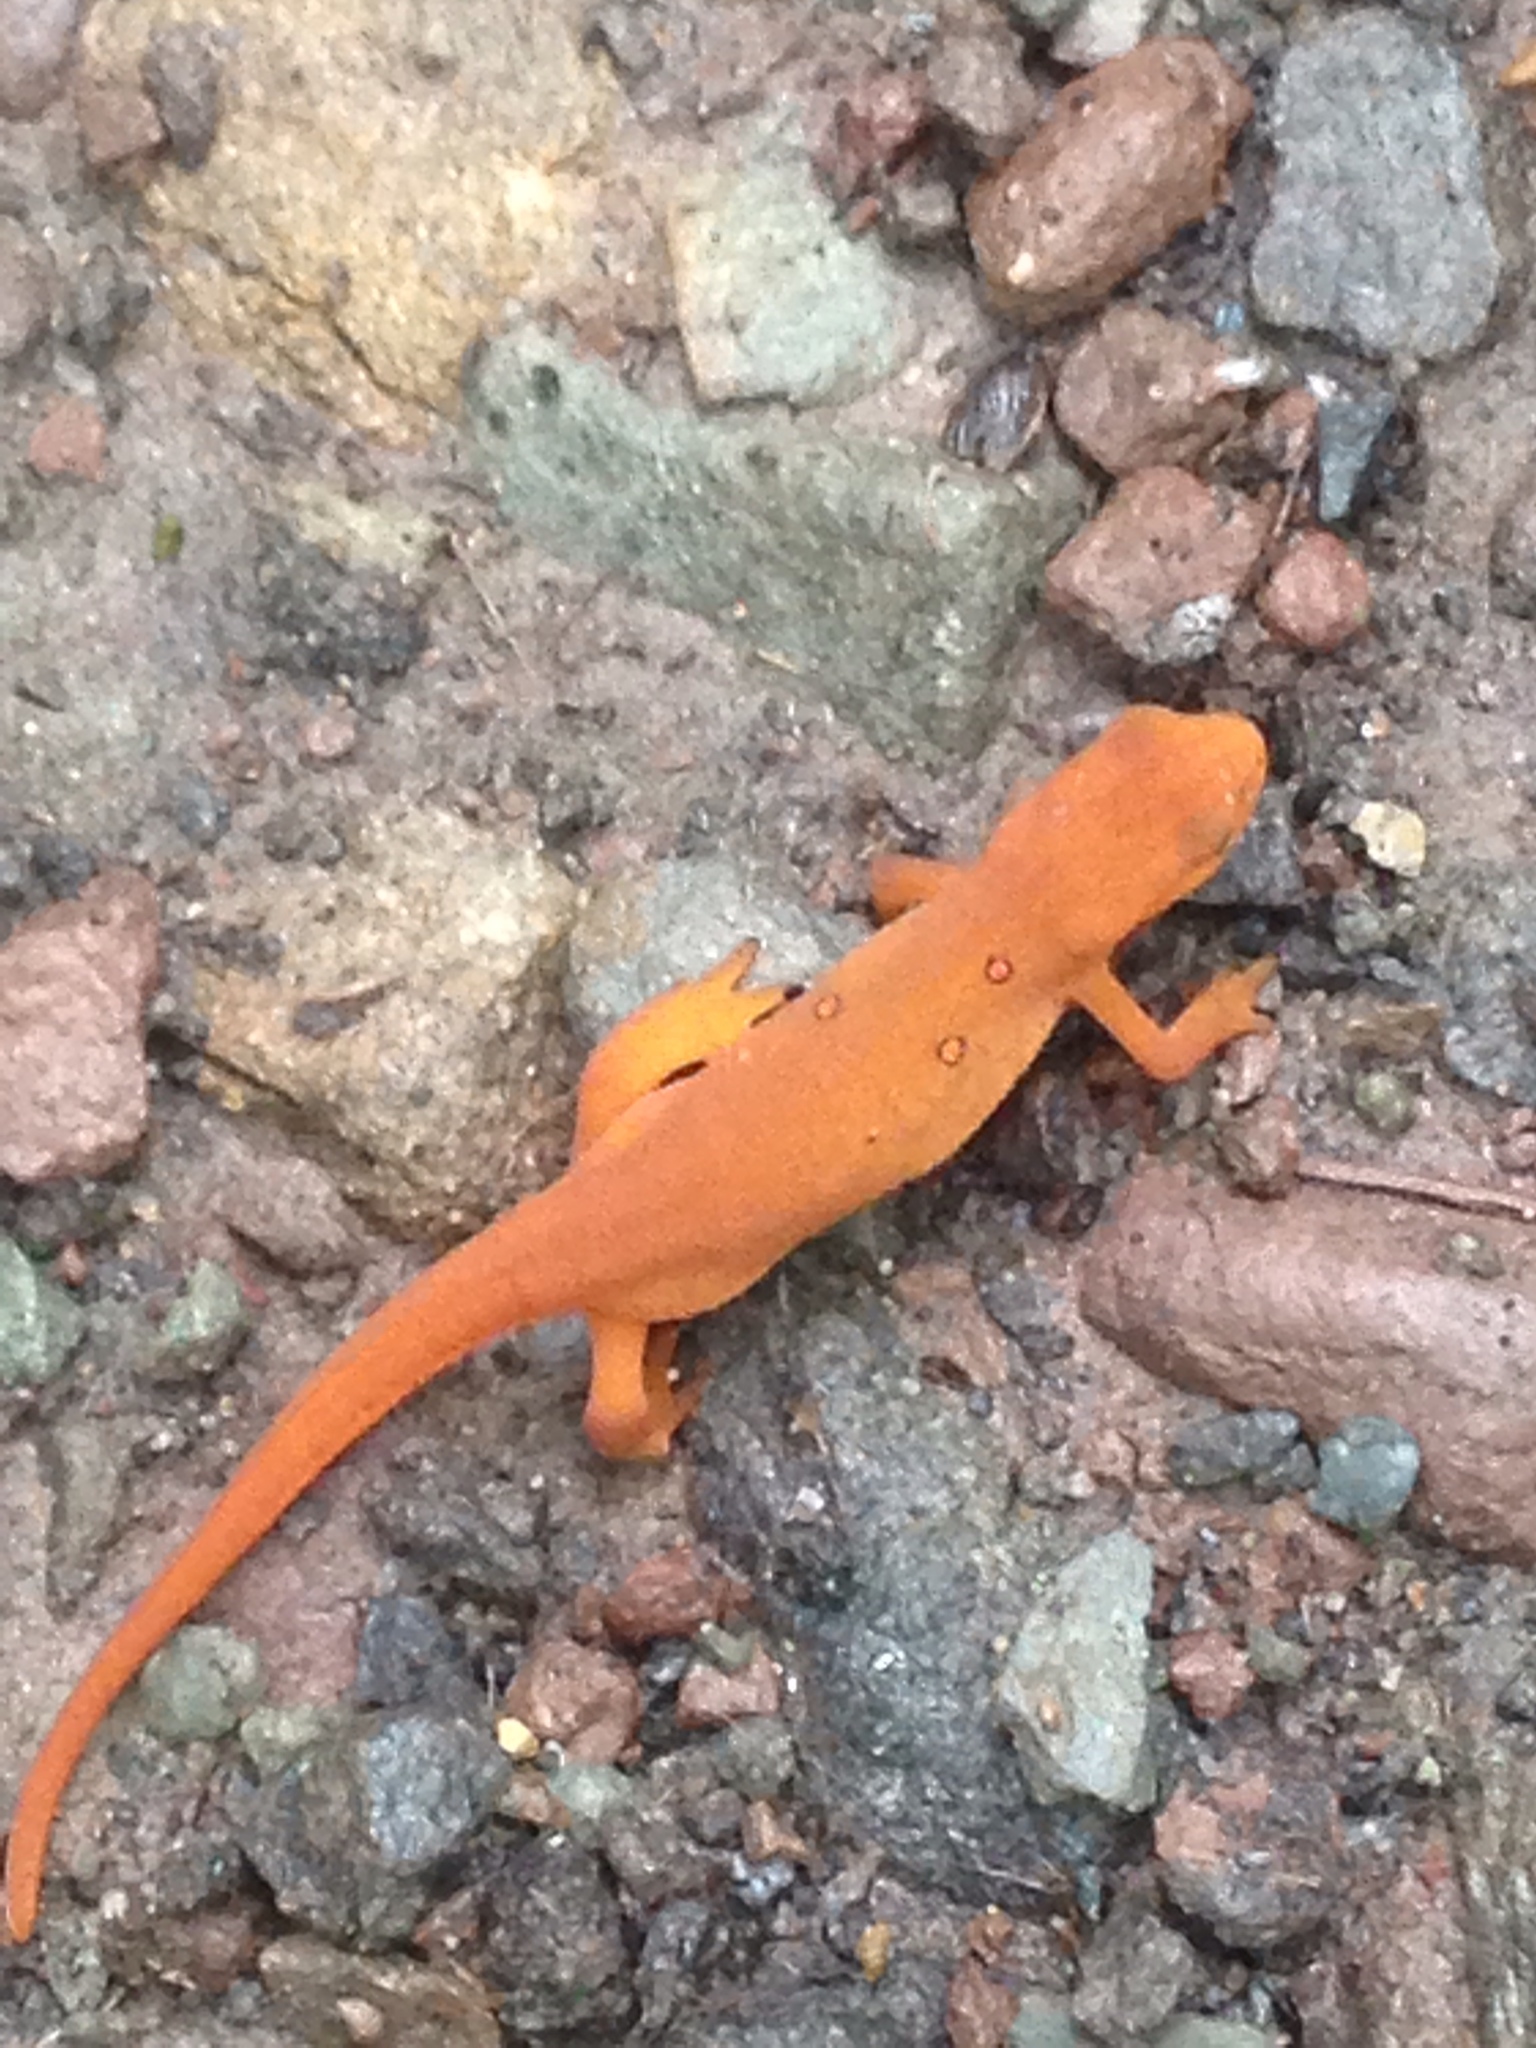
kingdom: Animalia
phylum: Chordata
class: Amphibia
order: Caudata
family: Salamandridae
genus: Notophthalmus
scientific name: Notophthalmus viridescens
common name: Eastern newt
